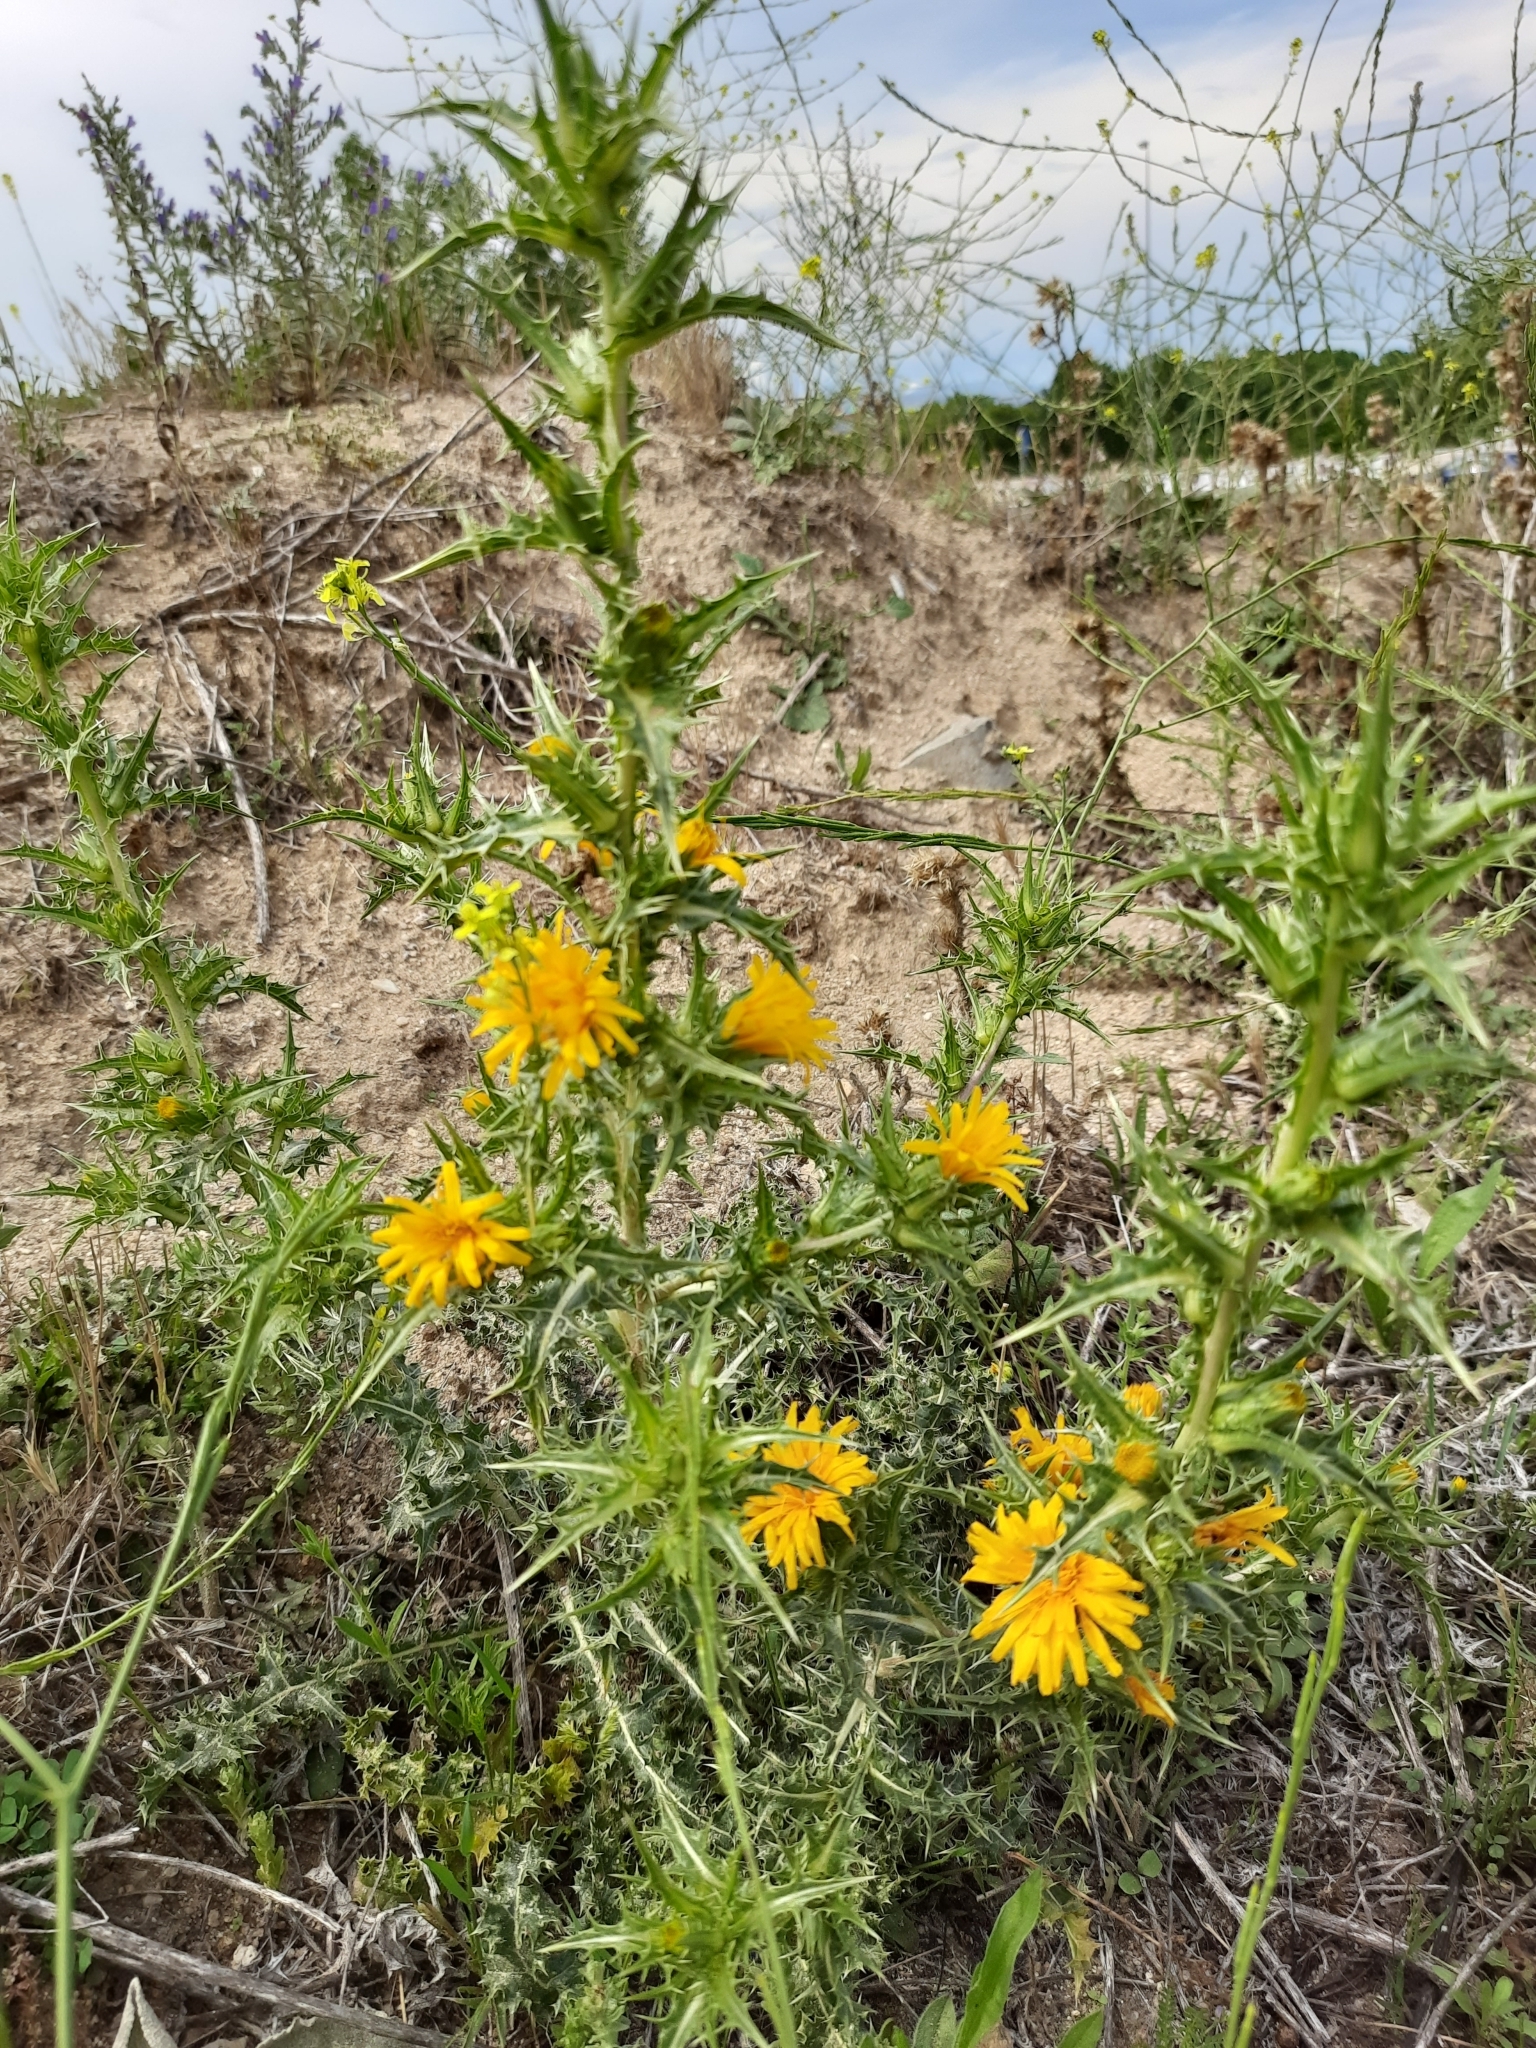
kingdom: Plantae
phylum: Tracheophyta
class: Magnoliopsida
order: Asterales
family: Asteraceae
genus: Scolymus
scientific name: Scolymus hispanicus
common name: Golden thistle
